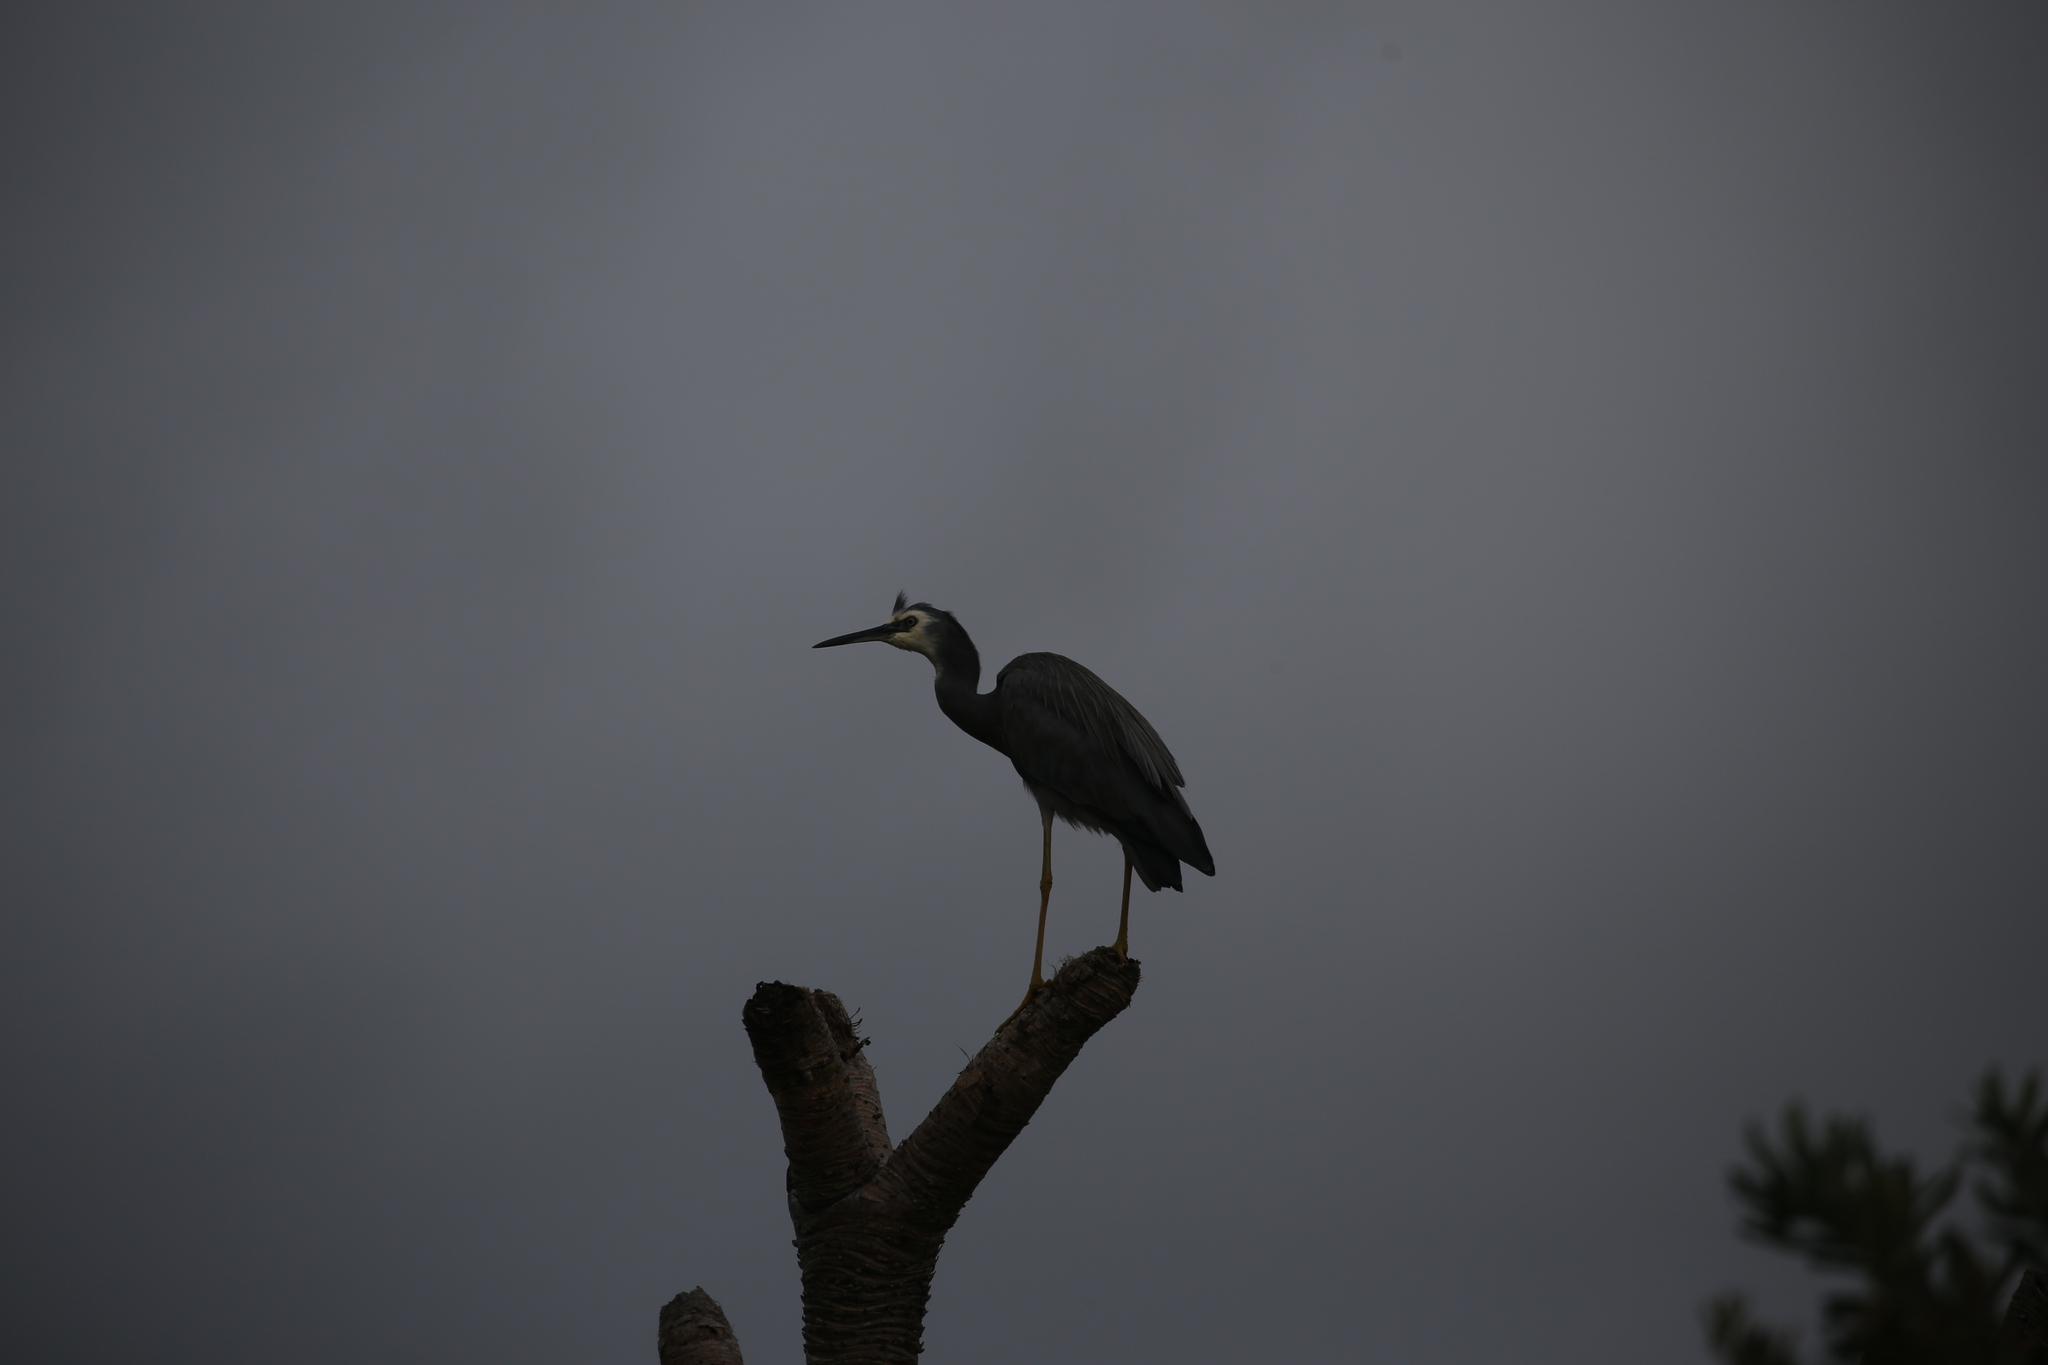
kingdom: Animalia
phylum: Chordata
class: Aves
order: Pelecaniformes
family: Ardeidae
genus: Egretta
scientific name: Egretta novaehollandiae
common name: White-faced heron
